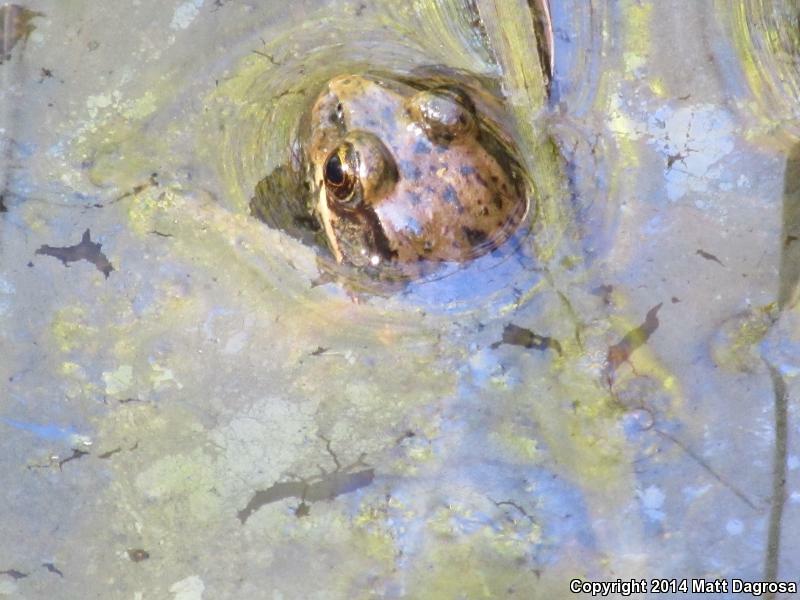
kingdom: Animalia
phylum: Chordata
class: Amphibia
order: Anura
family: Ranidae
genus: Rana
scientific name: Rana aurora
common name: Red-legged frog
